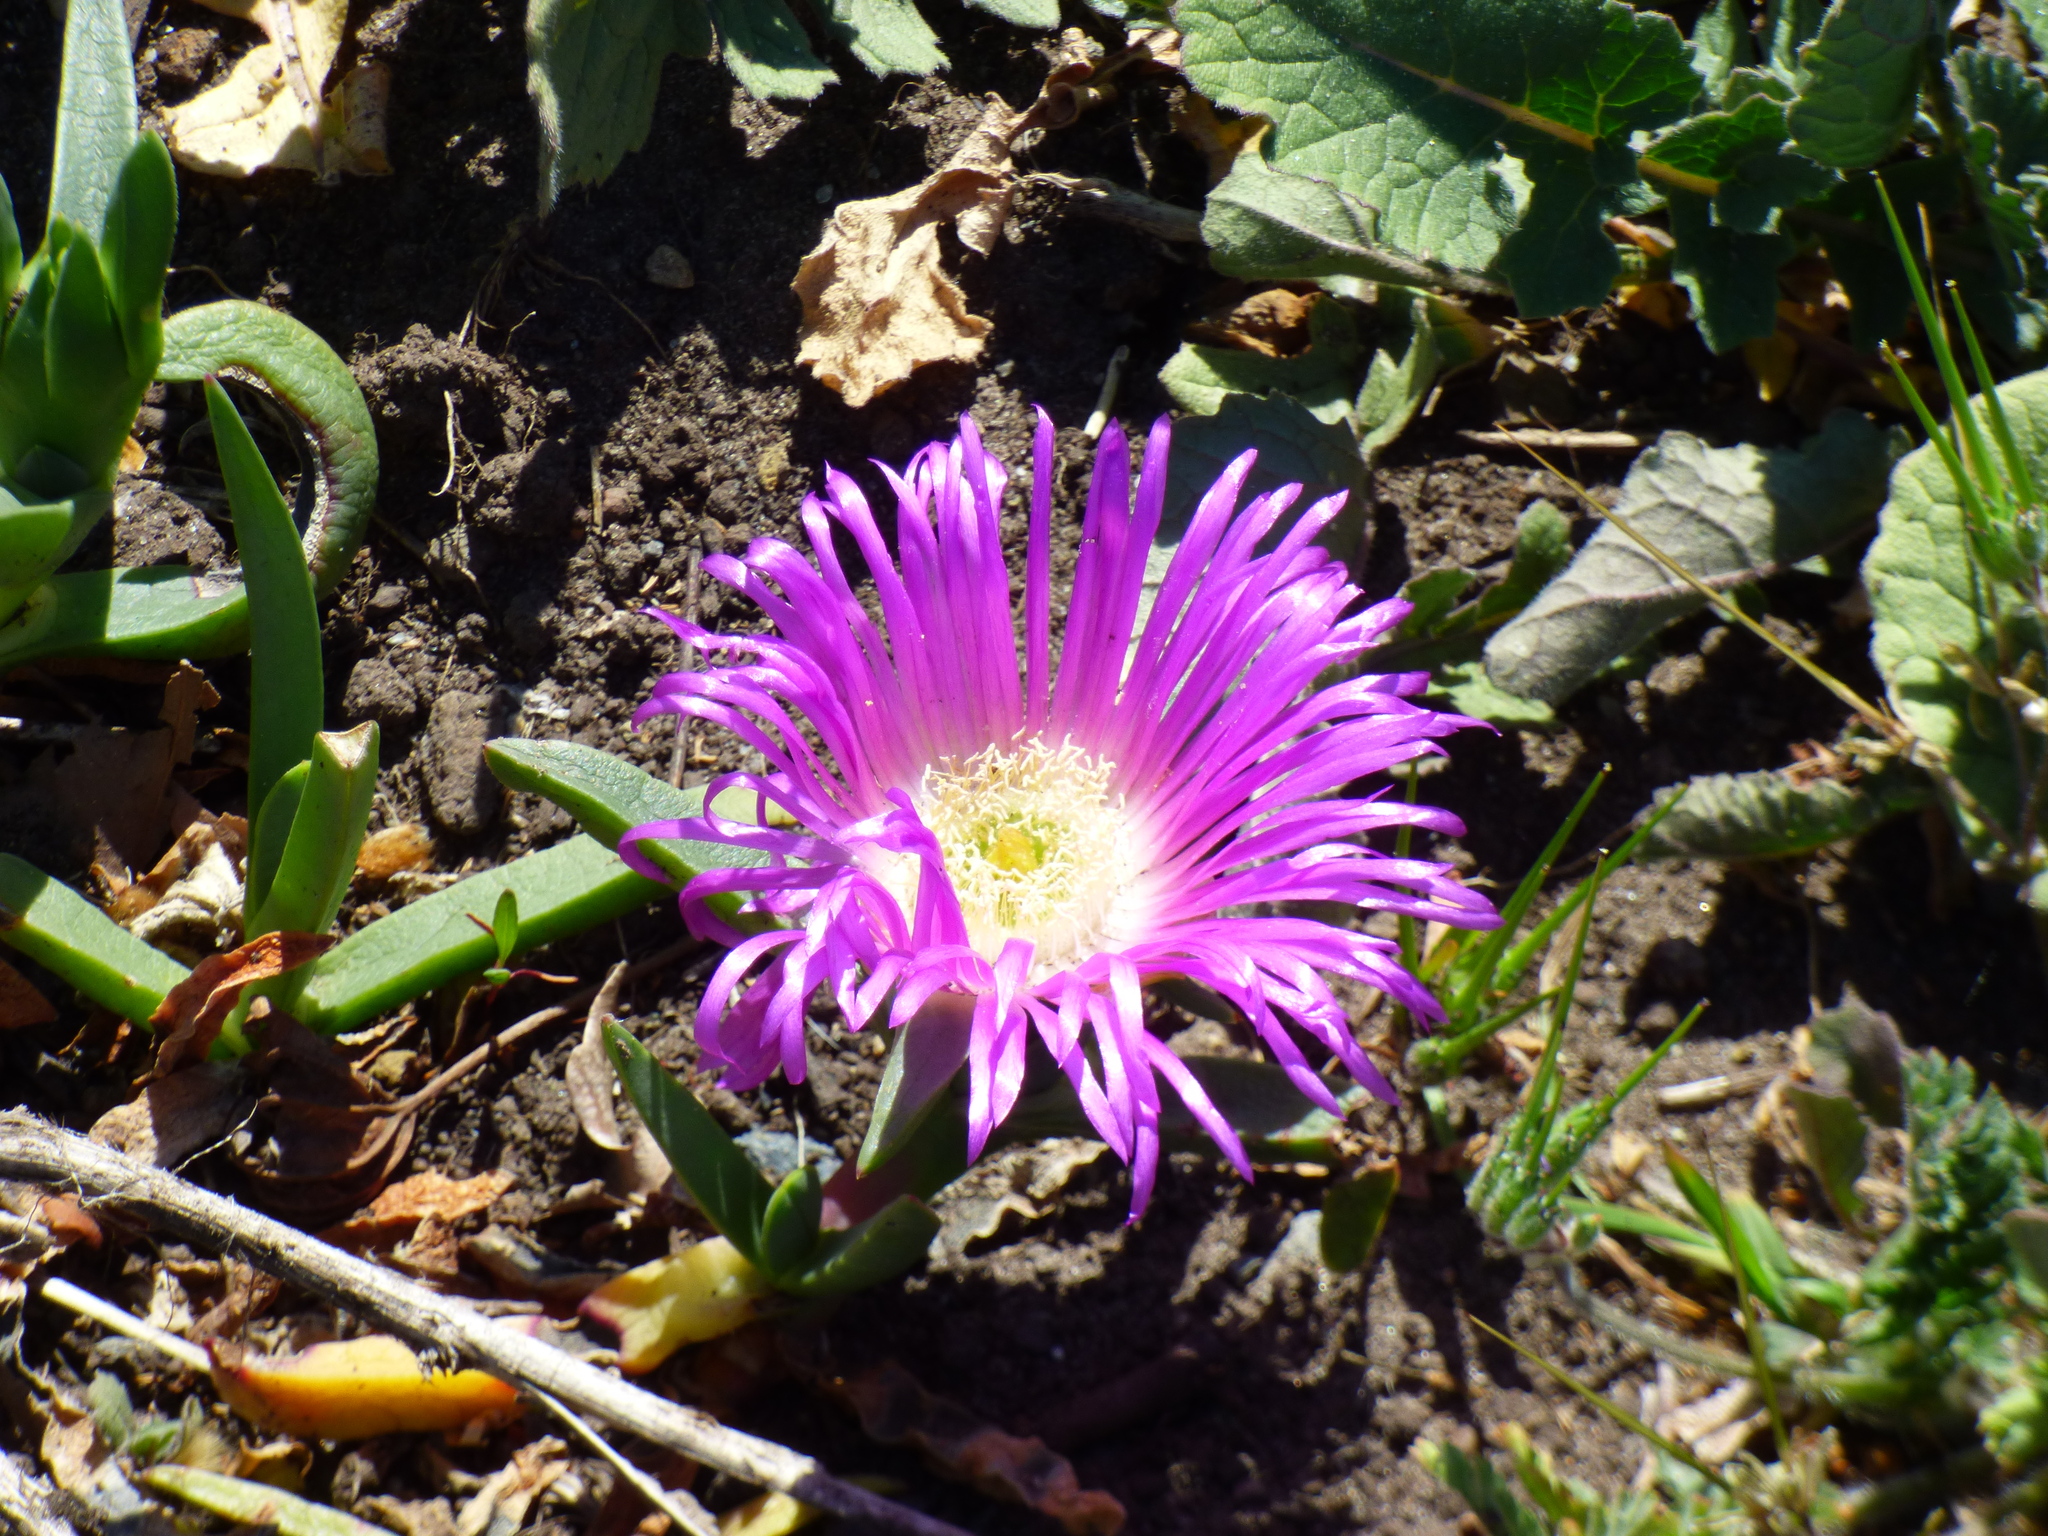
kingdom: Plantae
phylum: Tracheophyta
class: Magnoliopsida
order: Caryophyllales
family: Aizoaceae
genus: Carpobrotus
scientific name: Carpobrotus rossii
